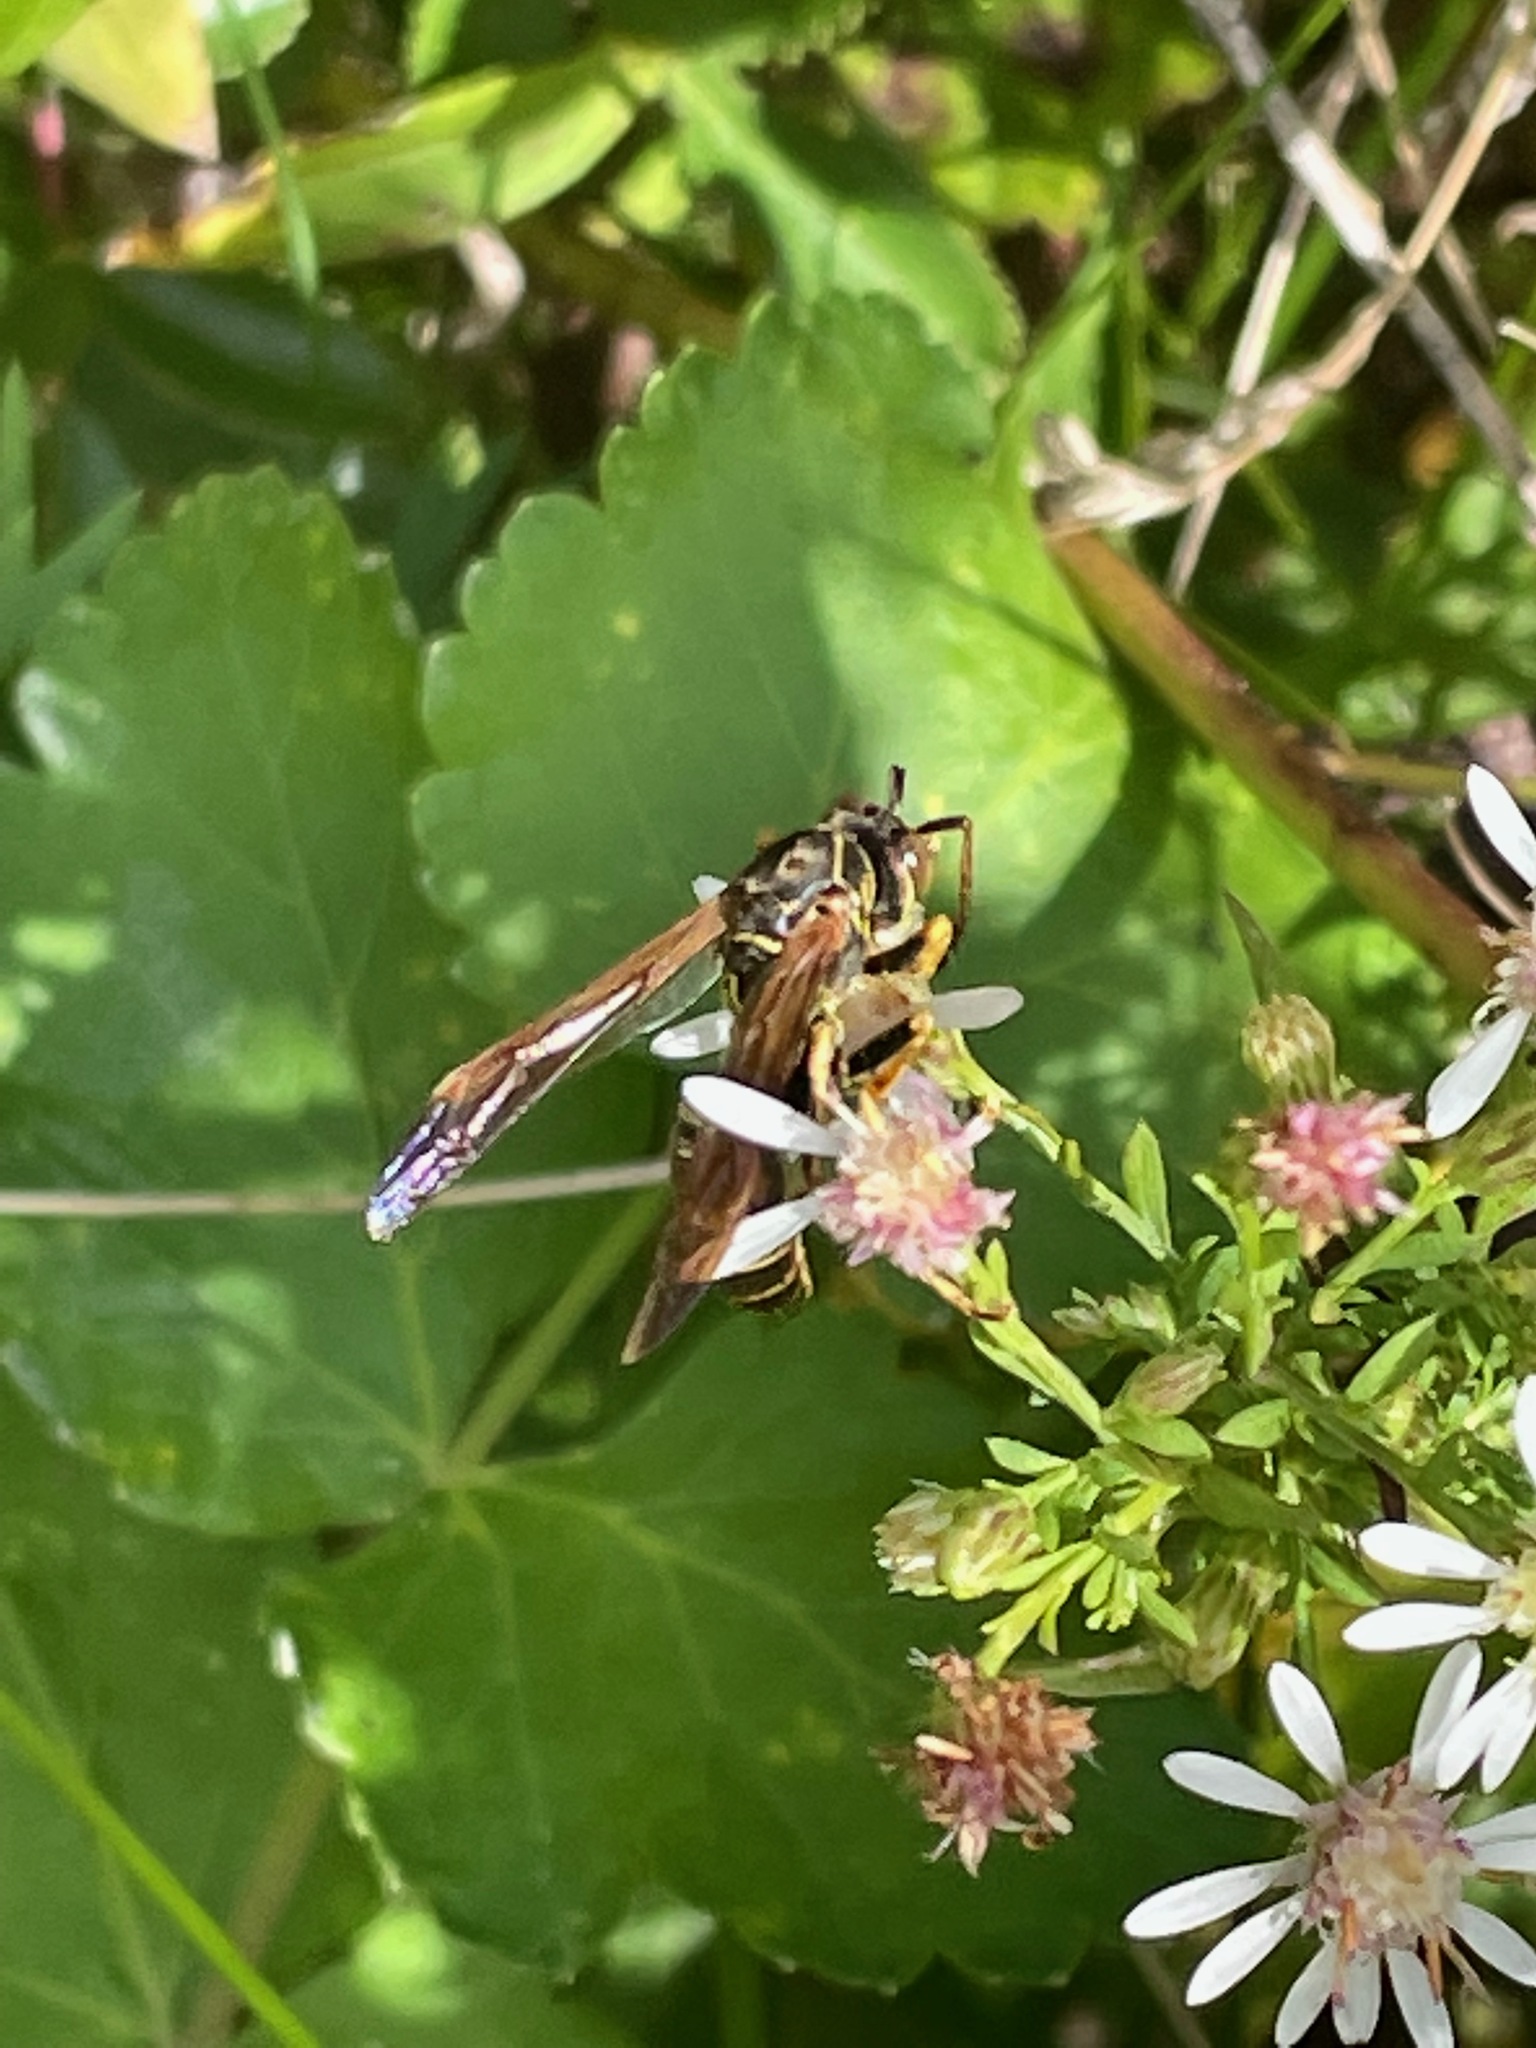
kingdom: Animalia
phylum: Arthropoda
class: Insecta
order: Hymenoptera
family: Eumenidae
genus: Polistes
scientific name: Polistes fuscatus
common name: Dark paper wasp
